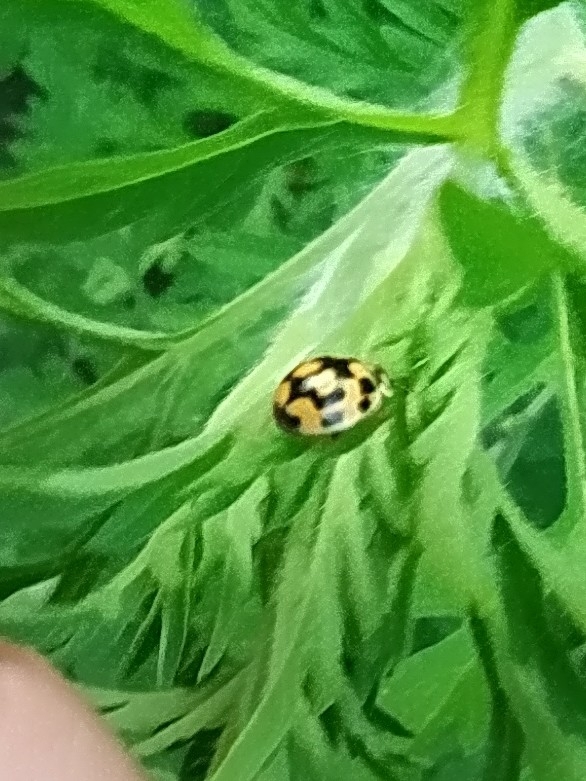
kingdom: Animalia
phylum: Arthropoda
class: Insecta
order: Coleoptera
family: Coccinellidae
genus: Propylaea
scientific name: Propylaea quatuordecimpunctata
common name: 14-spotted ladybird beetle
